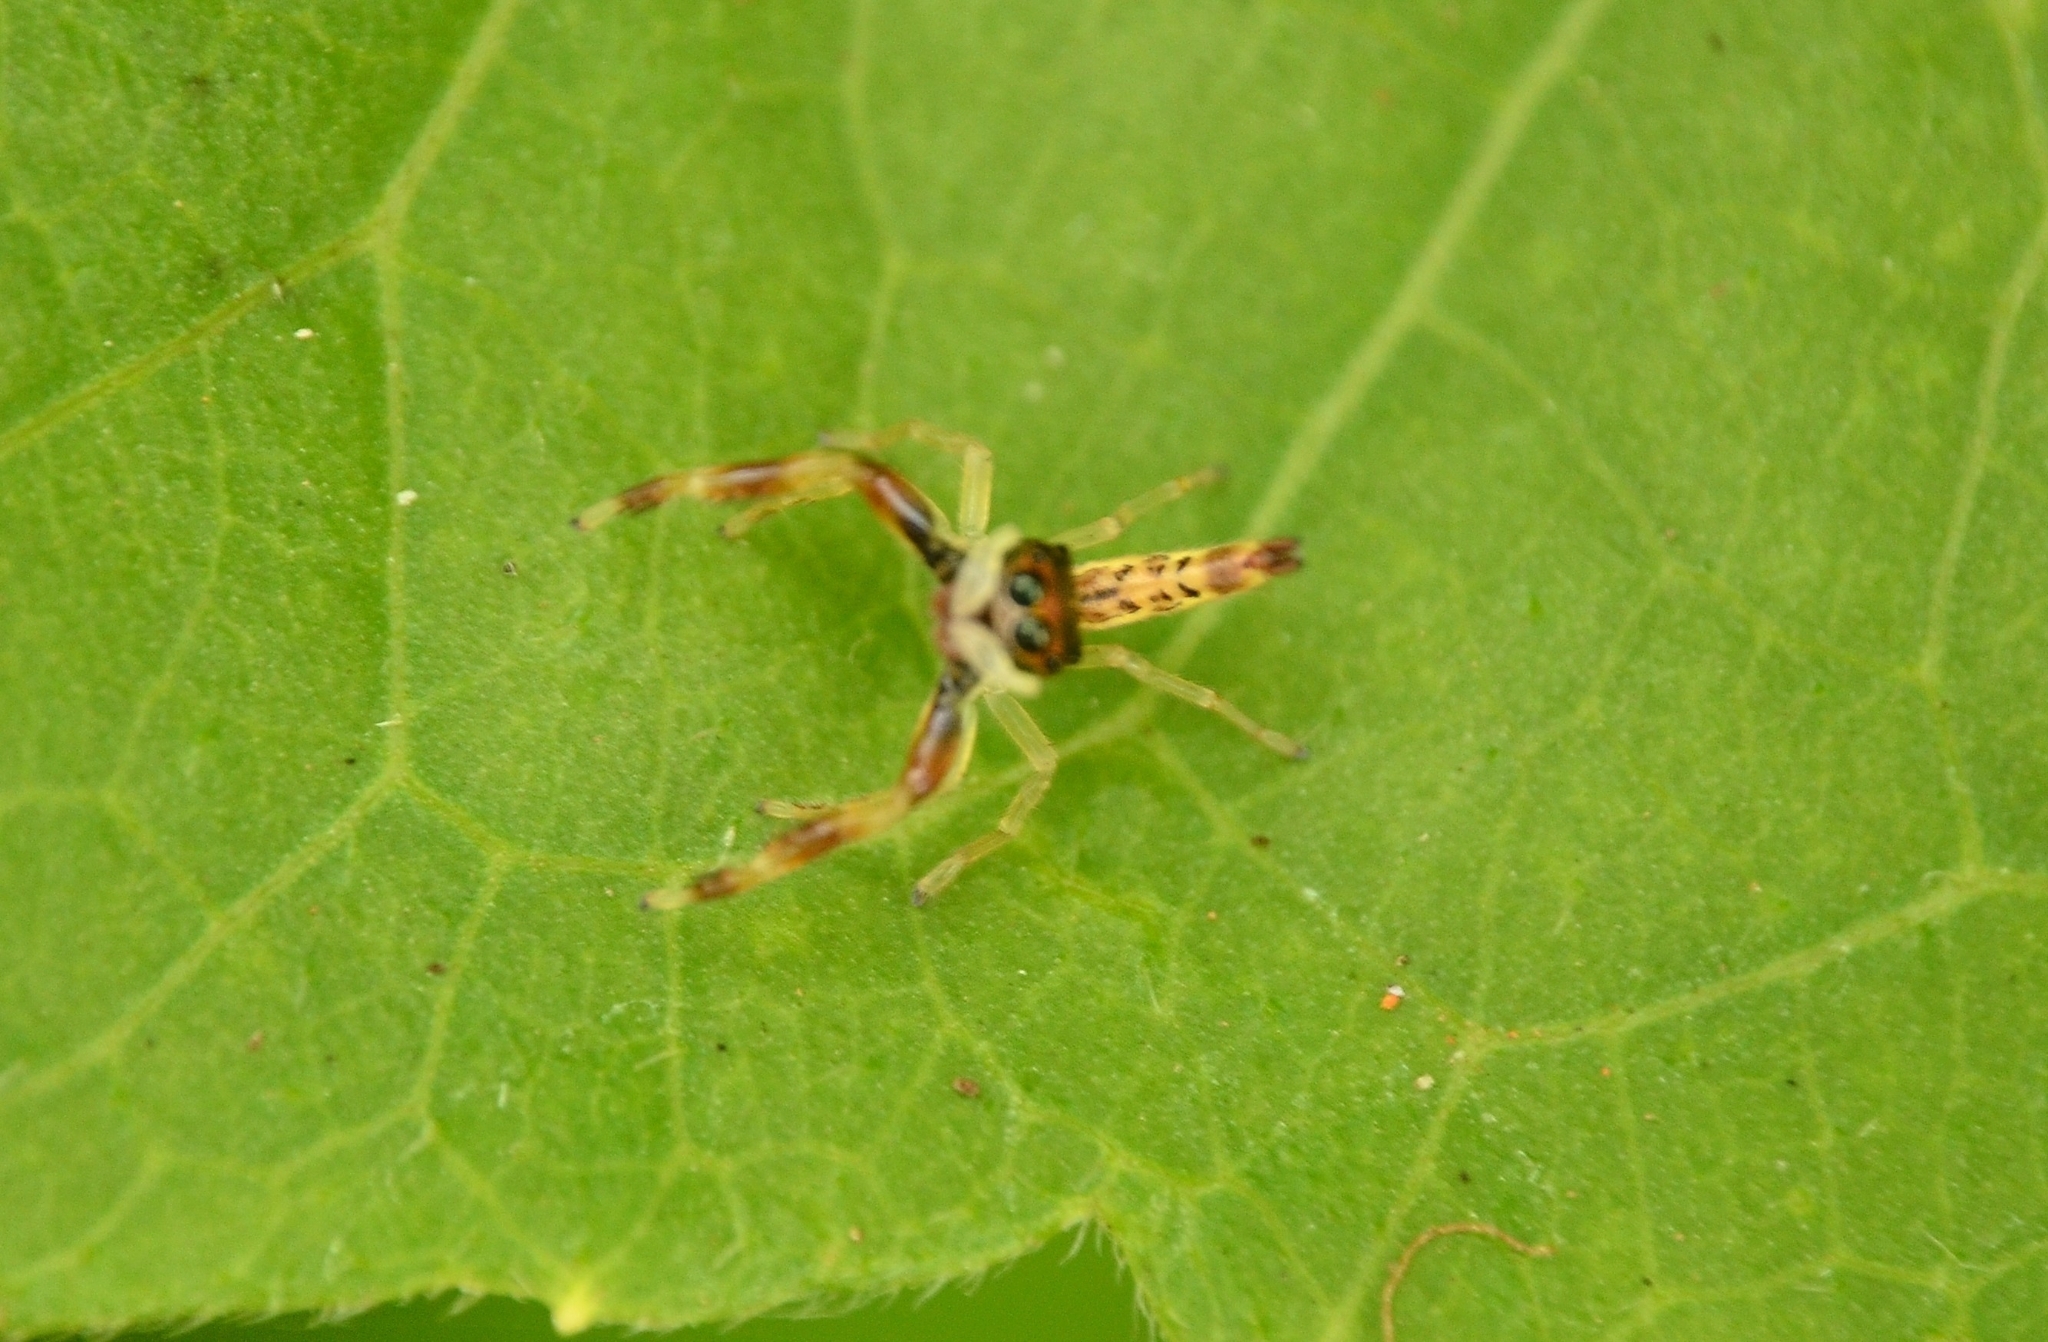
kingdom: Animalia
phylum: Arthropoda
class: Arachnida
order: Araneae
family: Salticidae
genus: Indopadilla
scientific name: Indopadilla insularis
